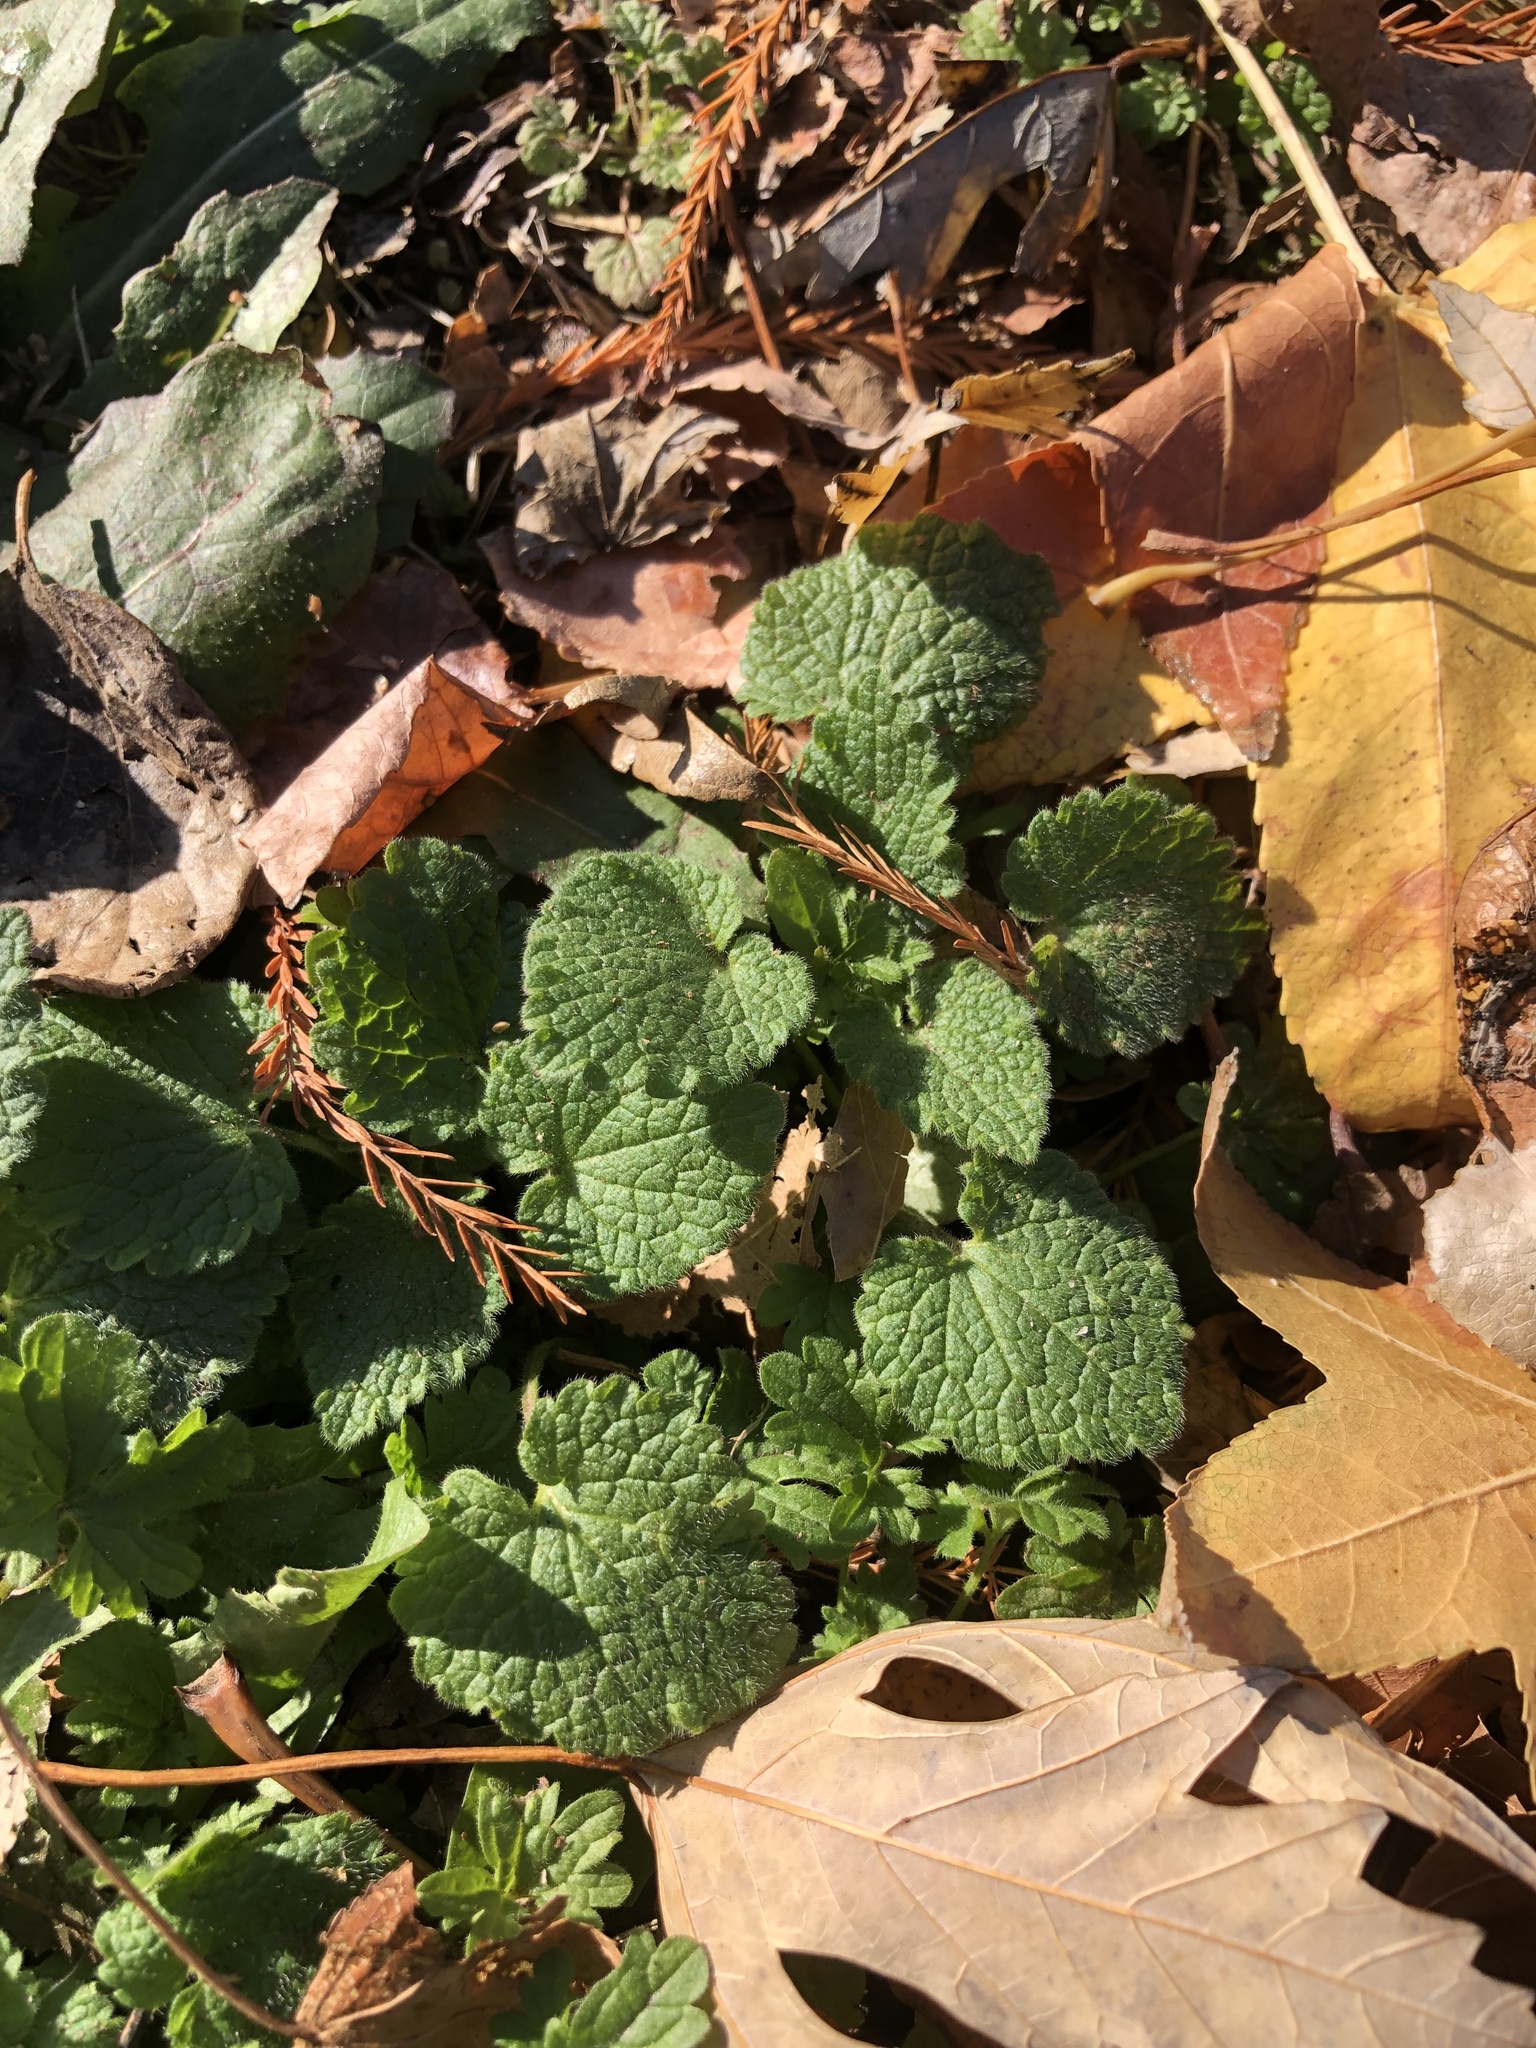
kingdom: Plantae
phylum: Tracheophyta
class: Magnoliopsida
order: Lamiales
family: Lamiaceae
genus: Lamium
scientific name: Lamium purpureum
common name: Red dead-nettle
